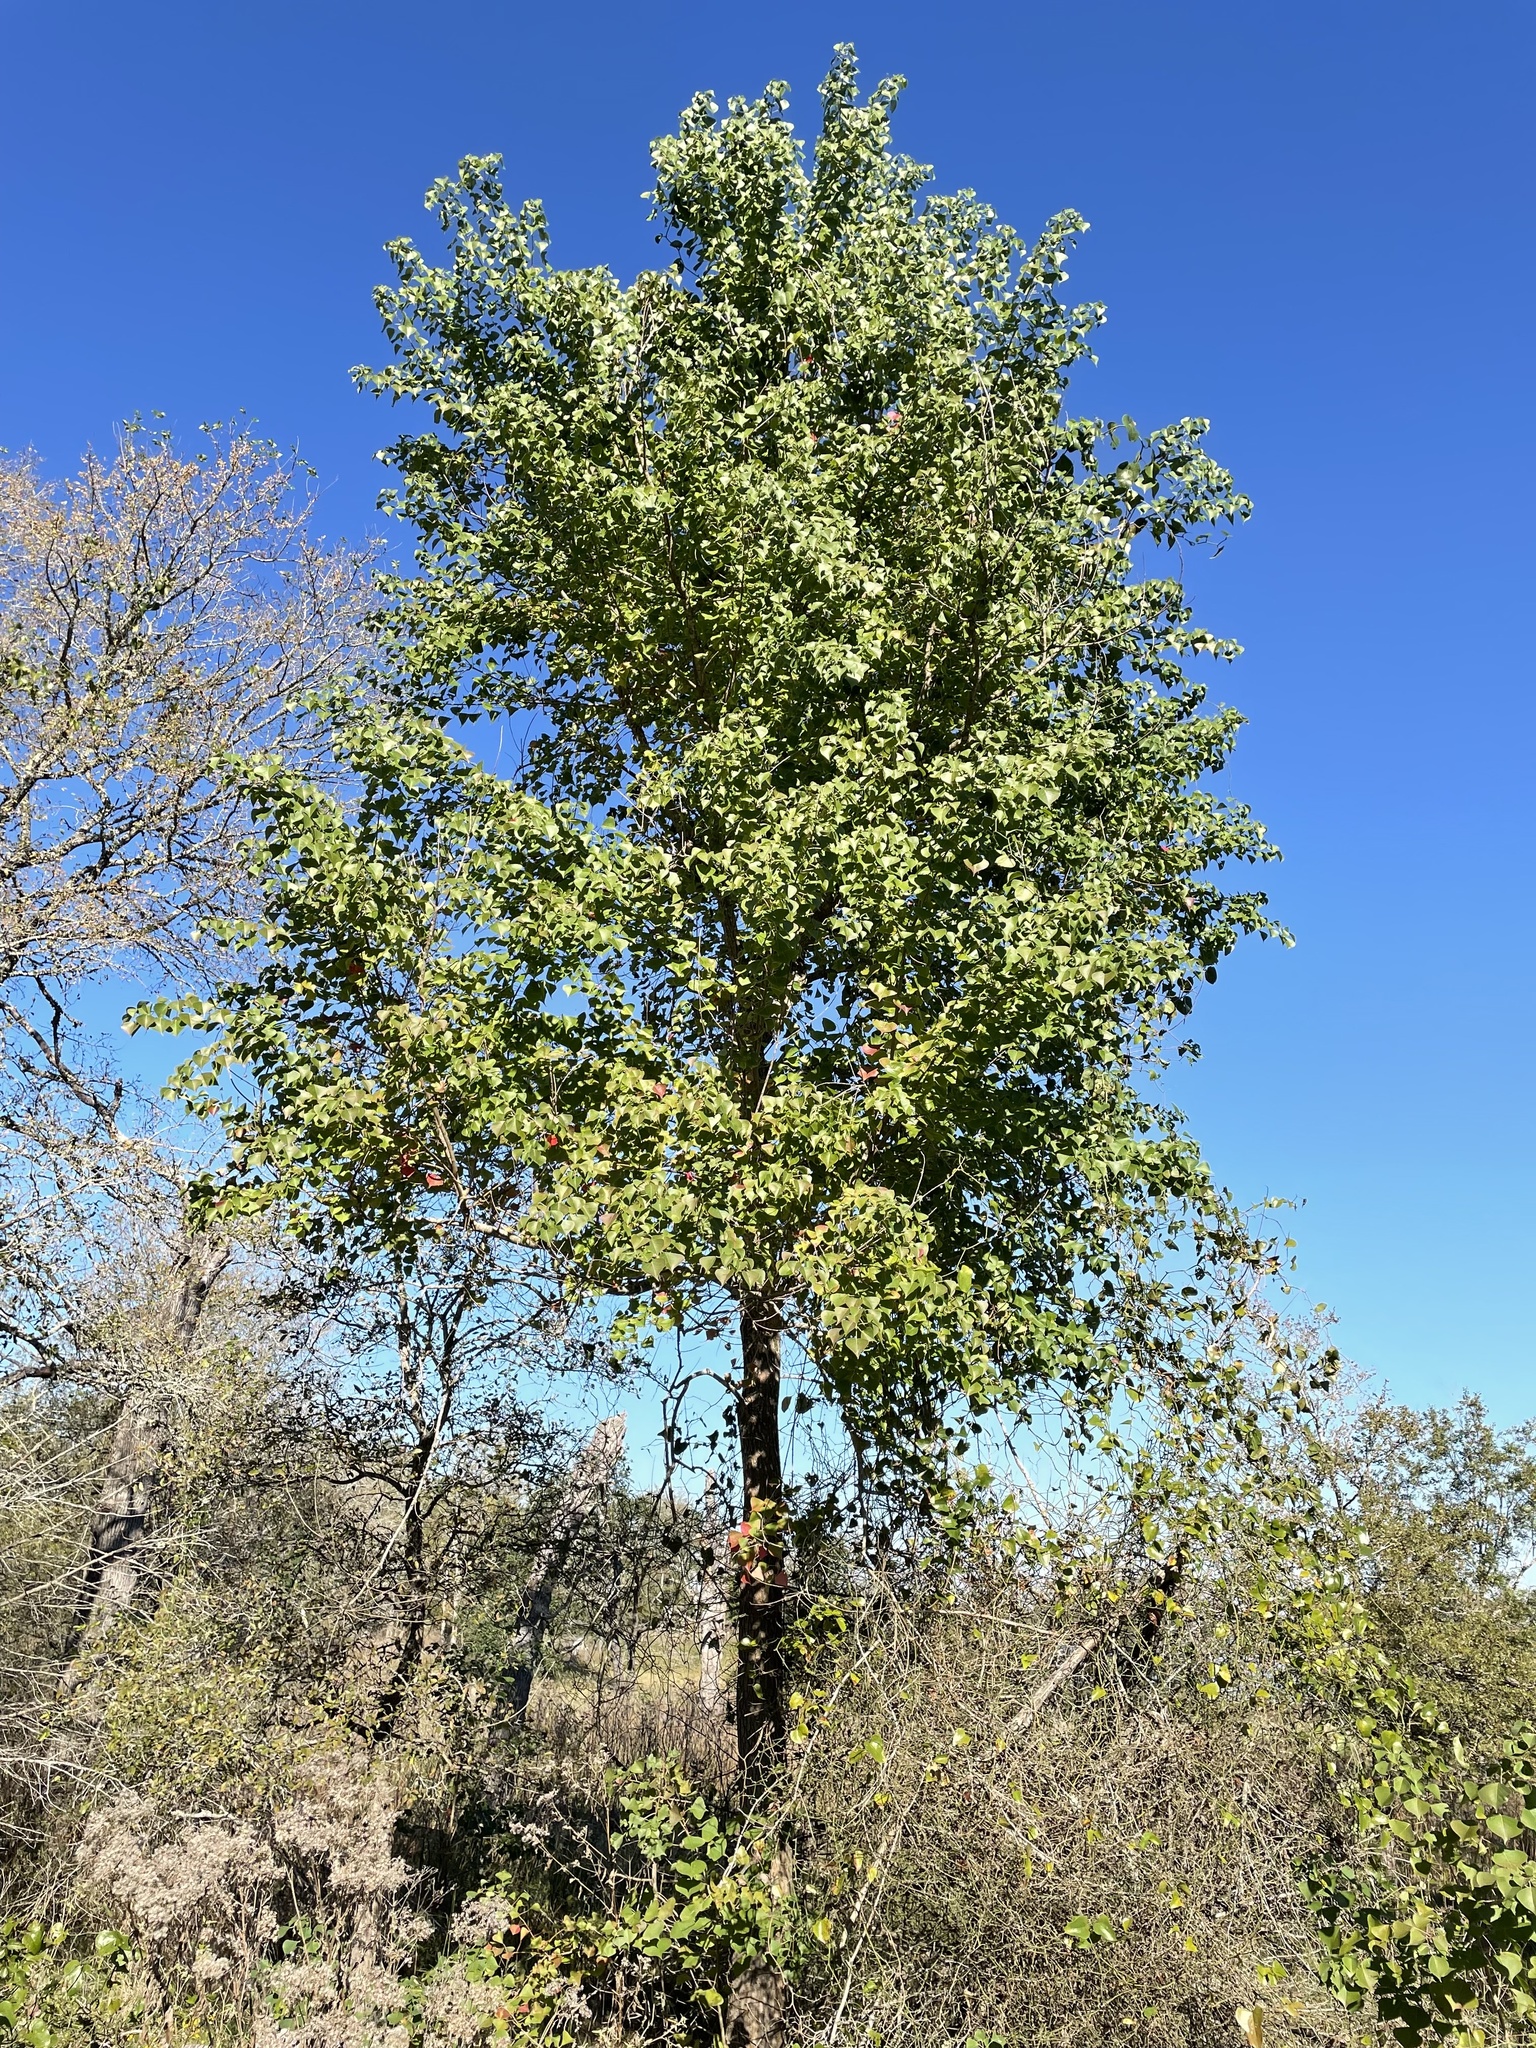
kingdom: Plantae
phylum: Tracheophyta
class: Magnoliopsida
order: Malpighiales
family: Euphorbiaceae
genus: Triadica
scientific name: Triadica sebifera
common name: Chinese tallow
